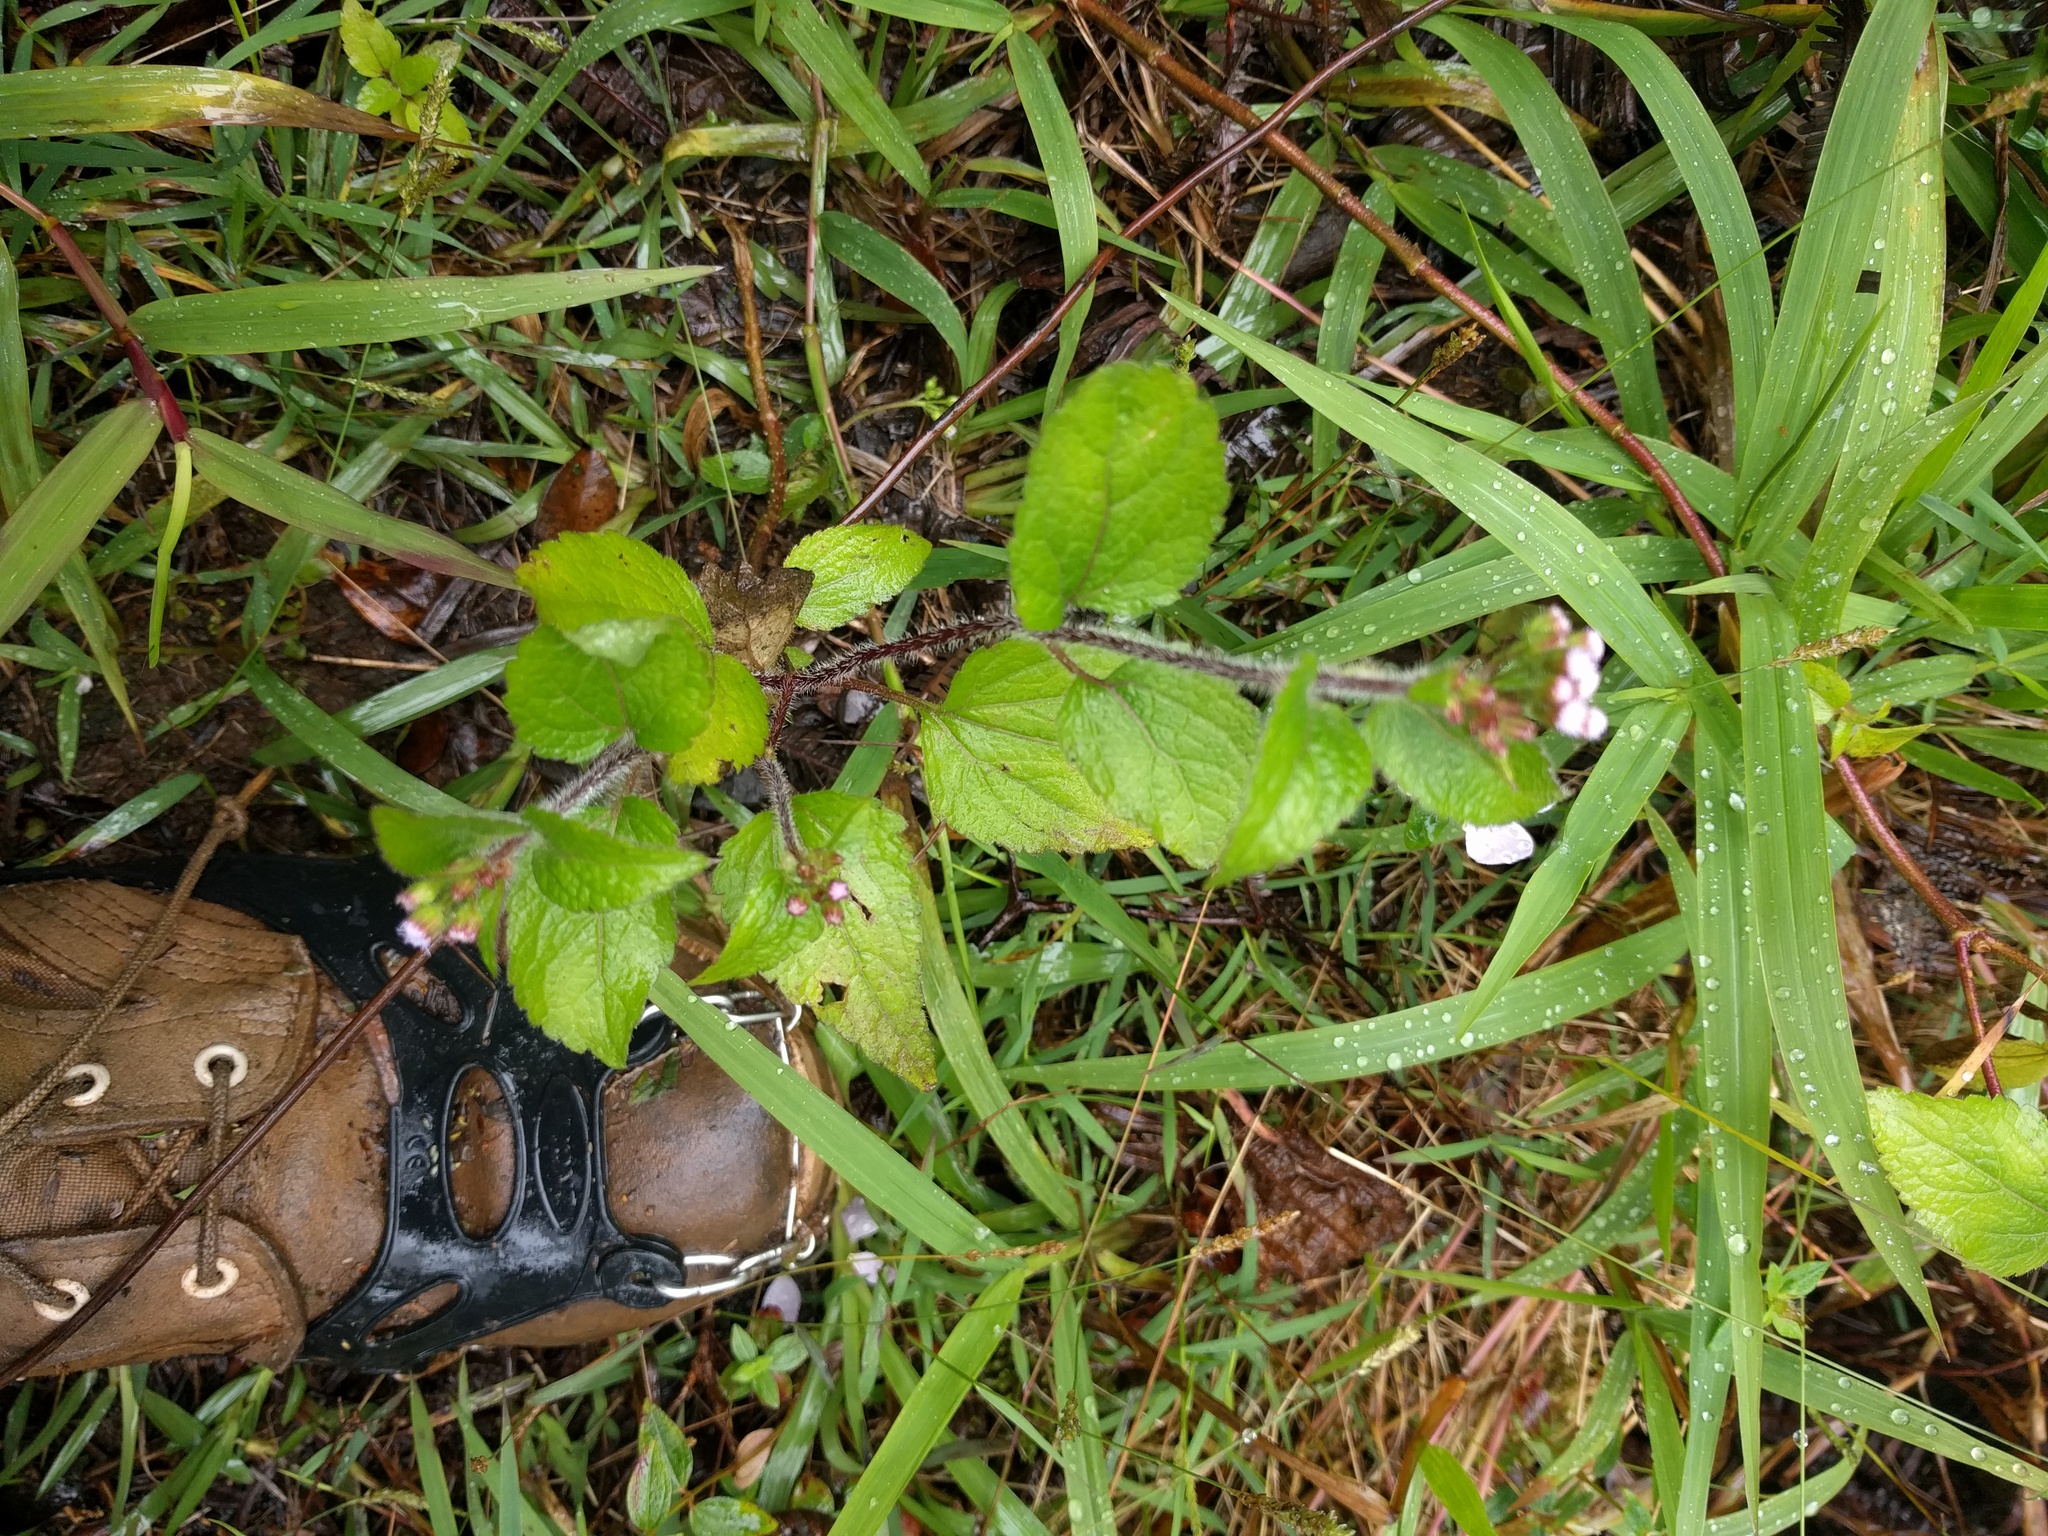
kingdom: Plantae
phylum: Tracheophyta
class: Magnoliopsida
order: Asterales
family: Asteraceae
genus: Ageratum
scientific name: Ageratum conyzoides
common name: Tropical whiteweed
